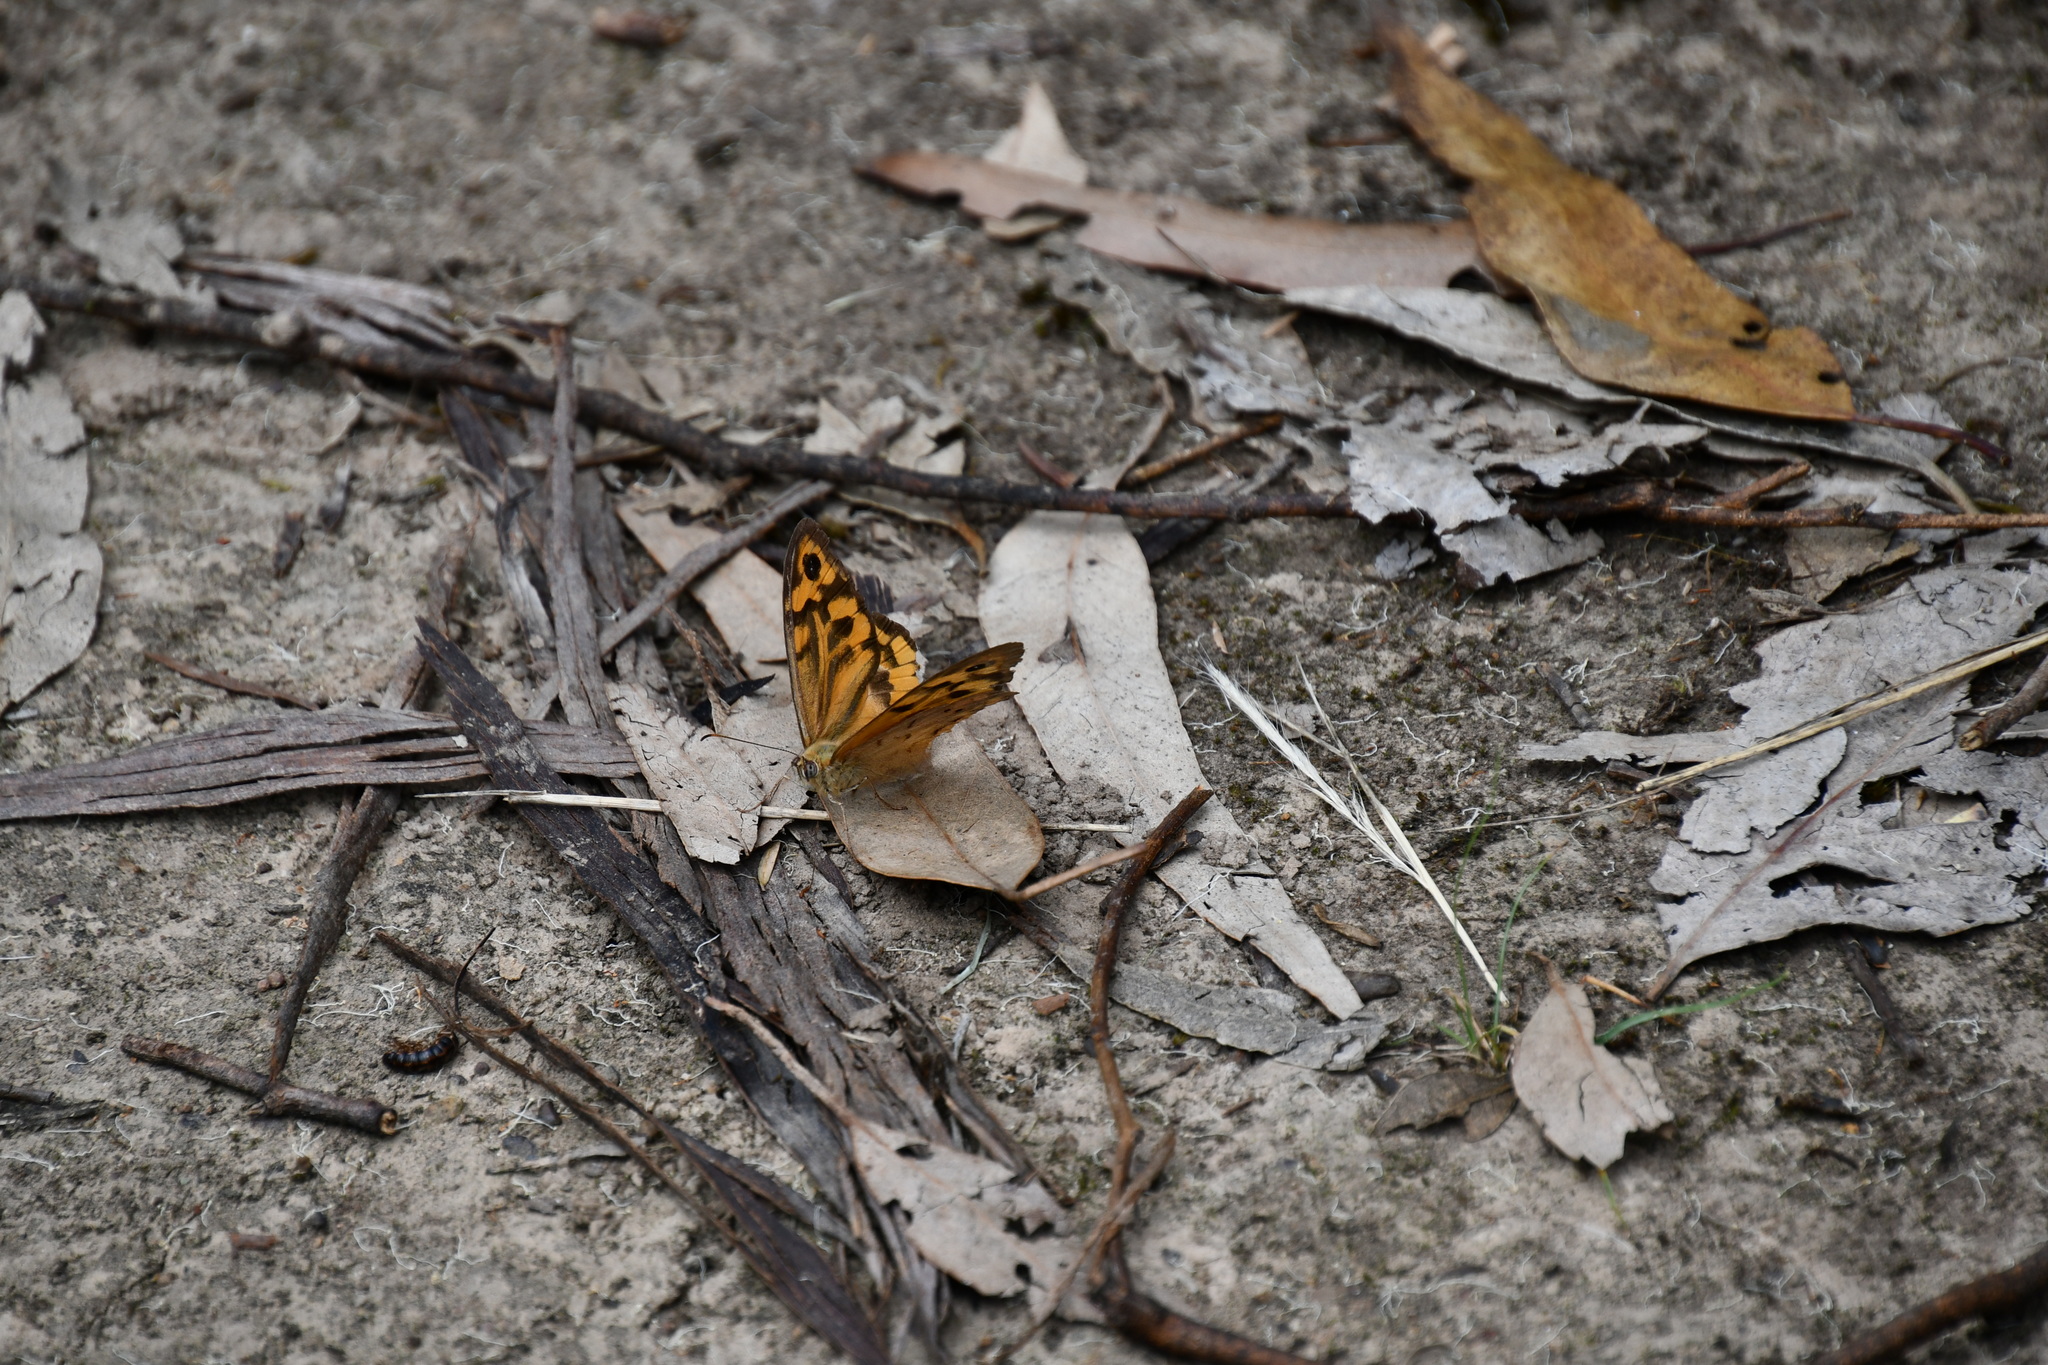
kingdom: Animalia
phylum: Arthropoda
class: Insecta
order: Lepidoptera
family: Nymphalidae
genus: Heteronympha
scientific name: Heteronympha merope
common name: Common brown
